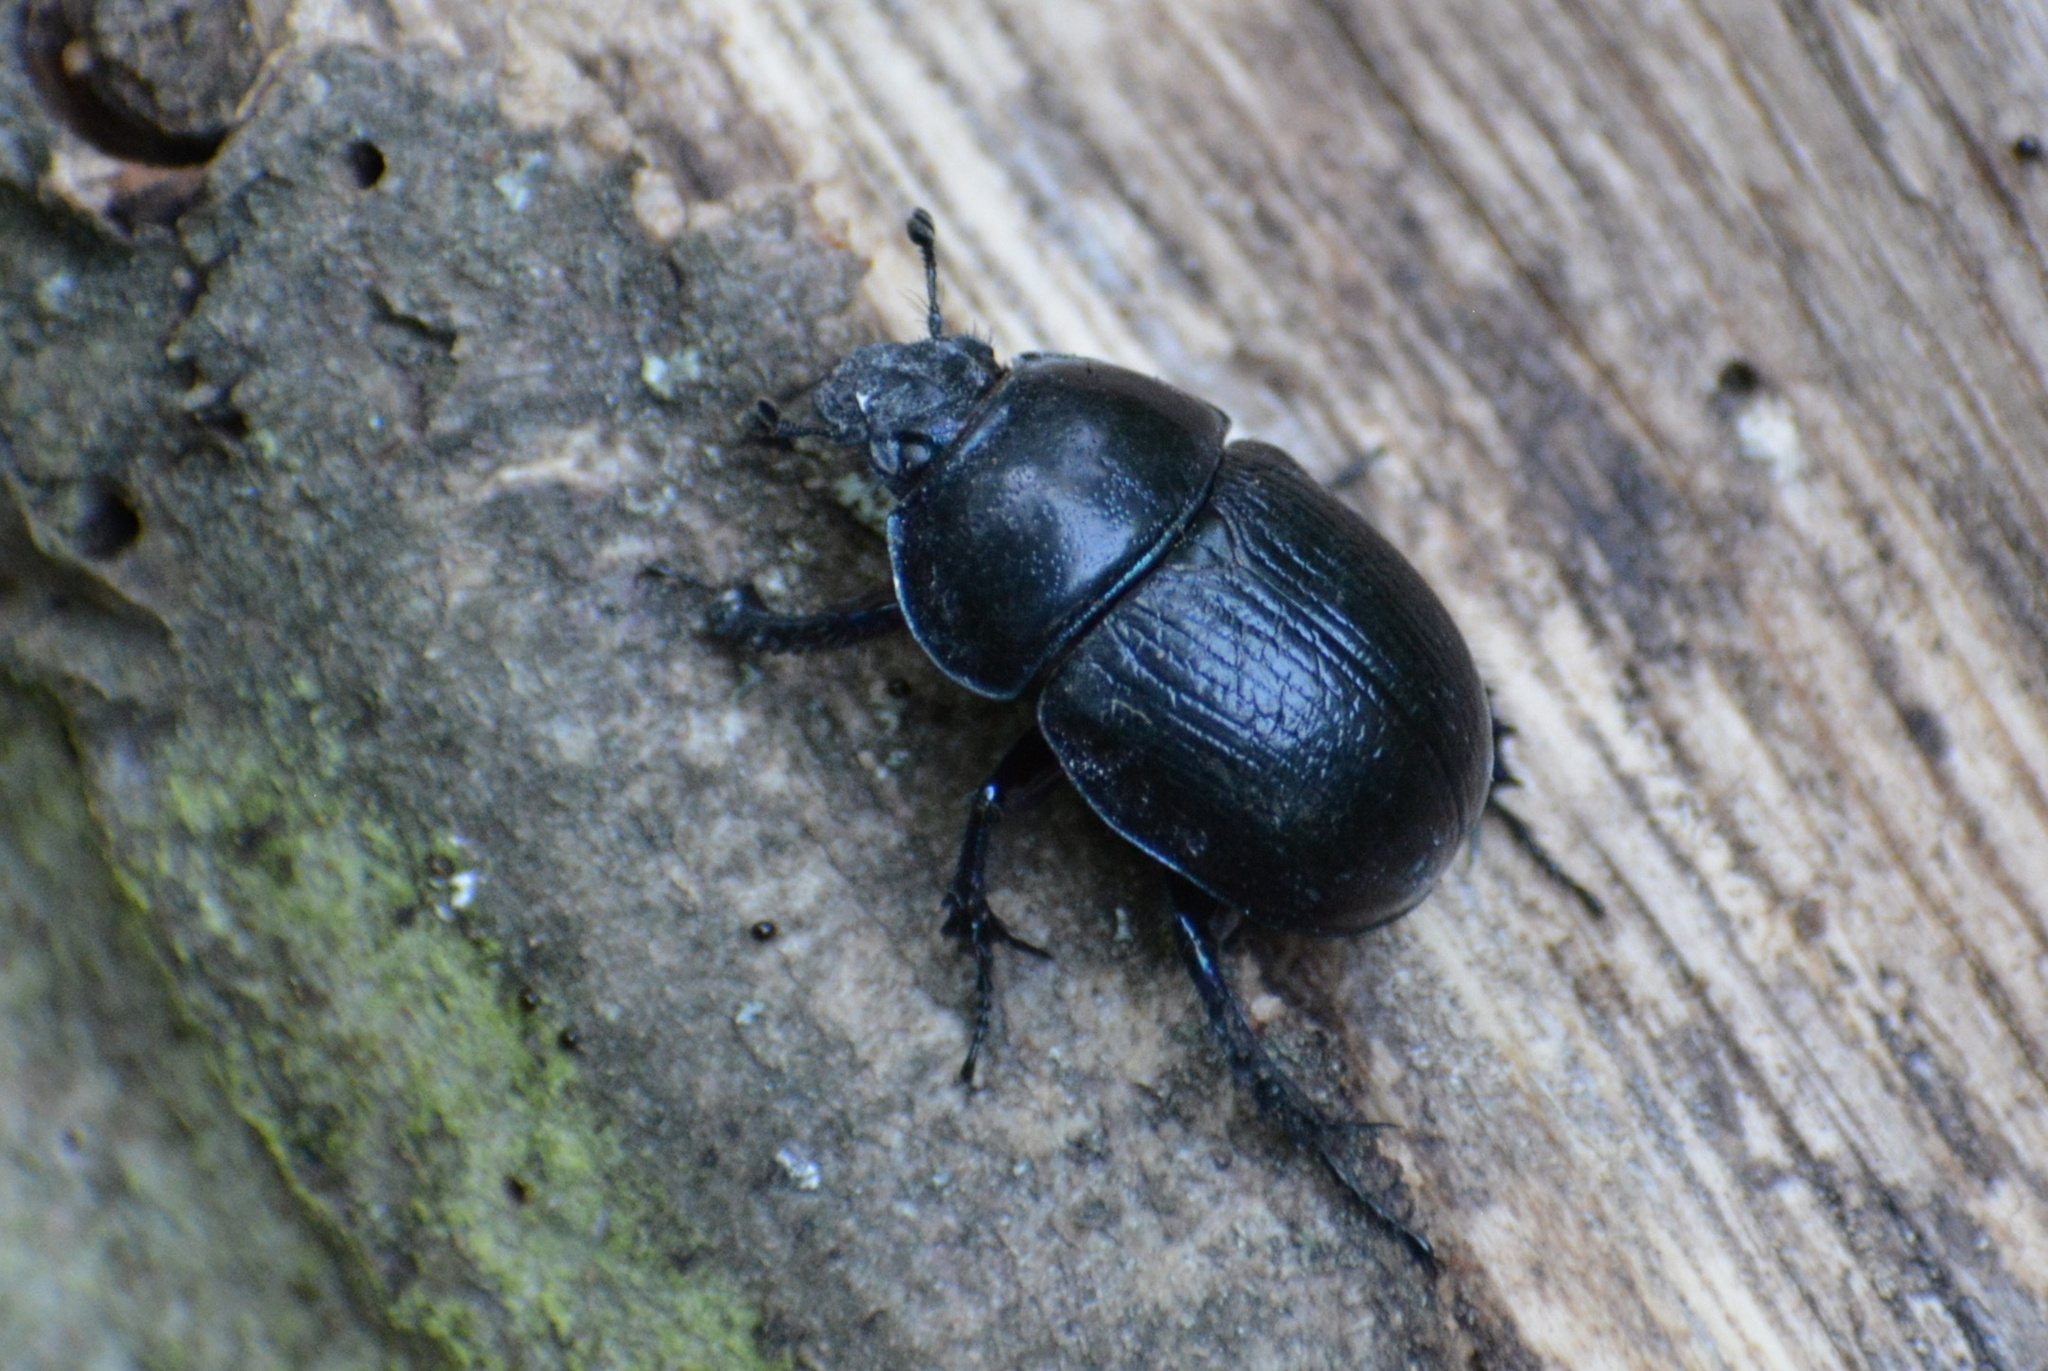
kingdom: Animalia
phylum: Arthropoda
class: Insecta
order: Coleoptera
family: Geotrupidae
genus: Anoplotrupes
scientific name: Anoplotrupes stercorosus
